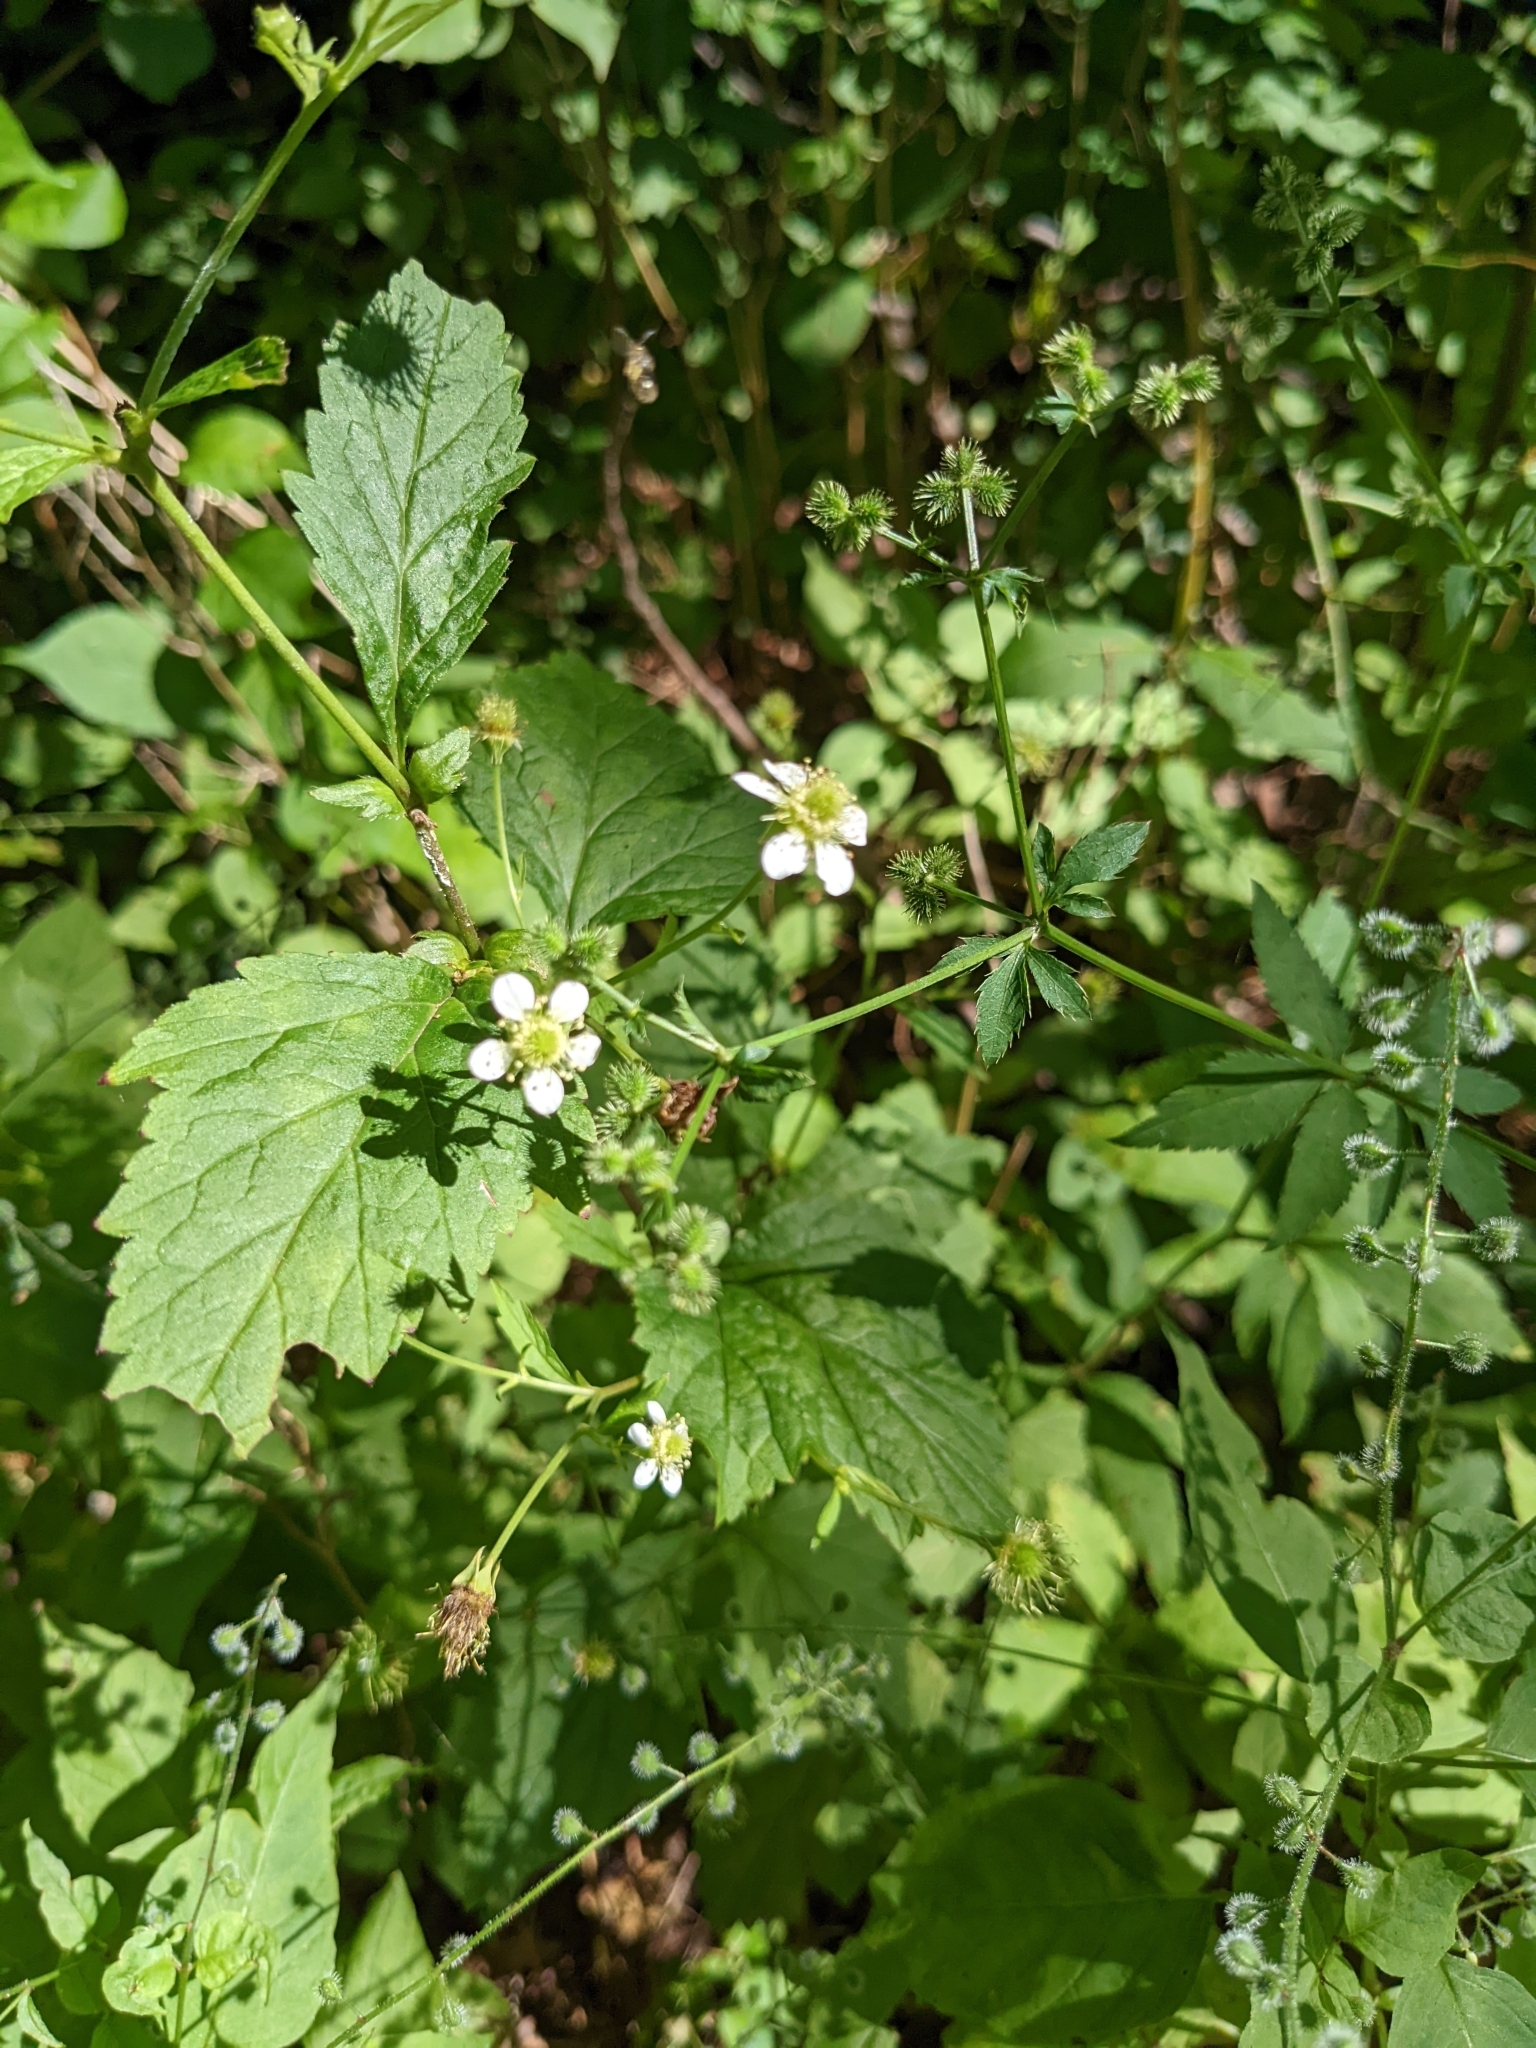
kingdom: Plantae
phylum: Tracheophyta
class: Magnoliopsida
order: Rosales
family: Rosaceae
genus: Geum
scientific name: Geum canadense
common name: White avens
